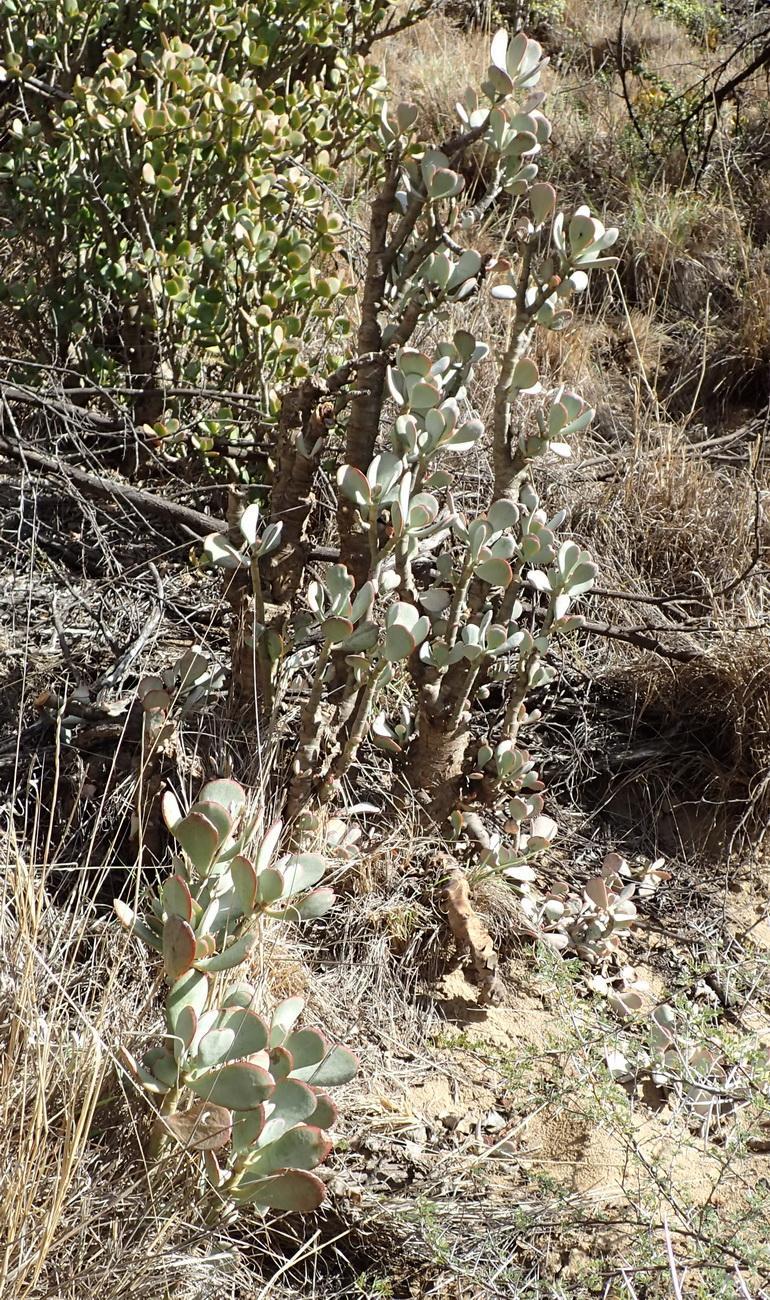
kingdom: Plantae
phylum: Tracheophyta
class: Magnoliopsida
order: Saxifragales
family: Crassulaceae
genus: Crassula
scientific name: Crassula arborescens
